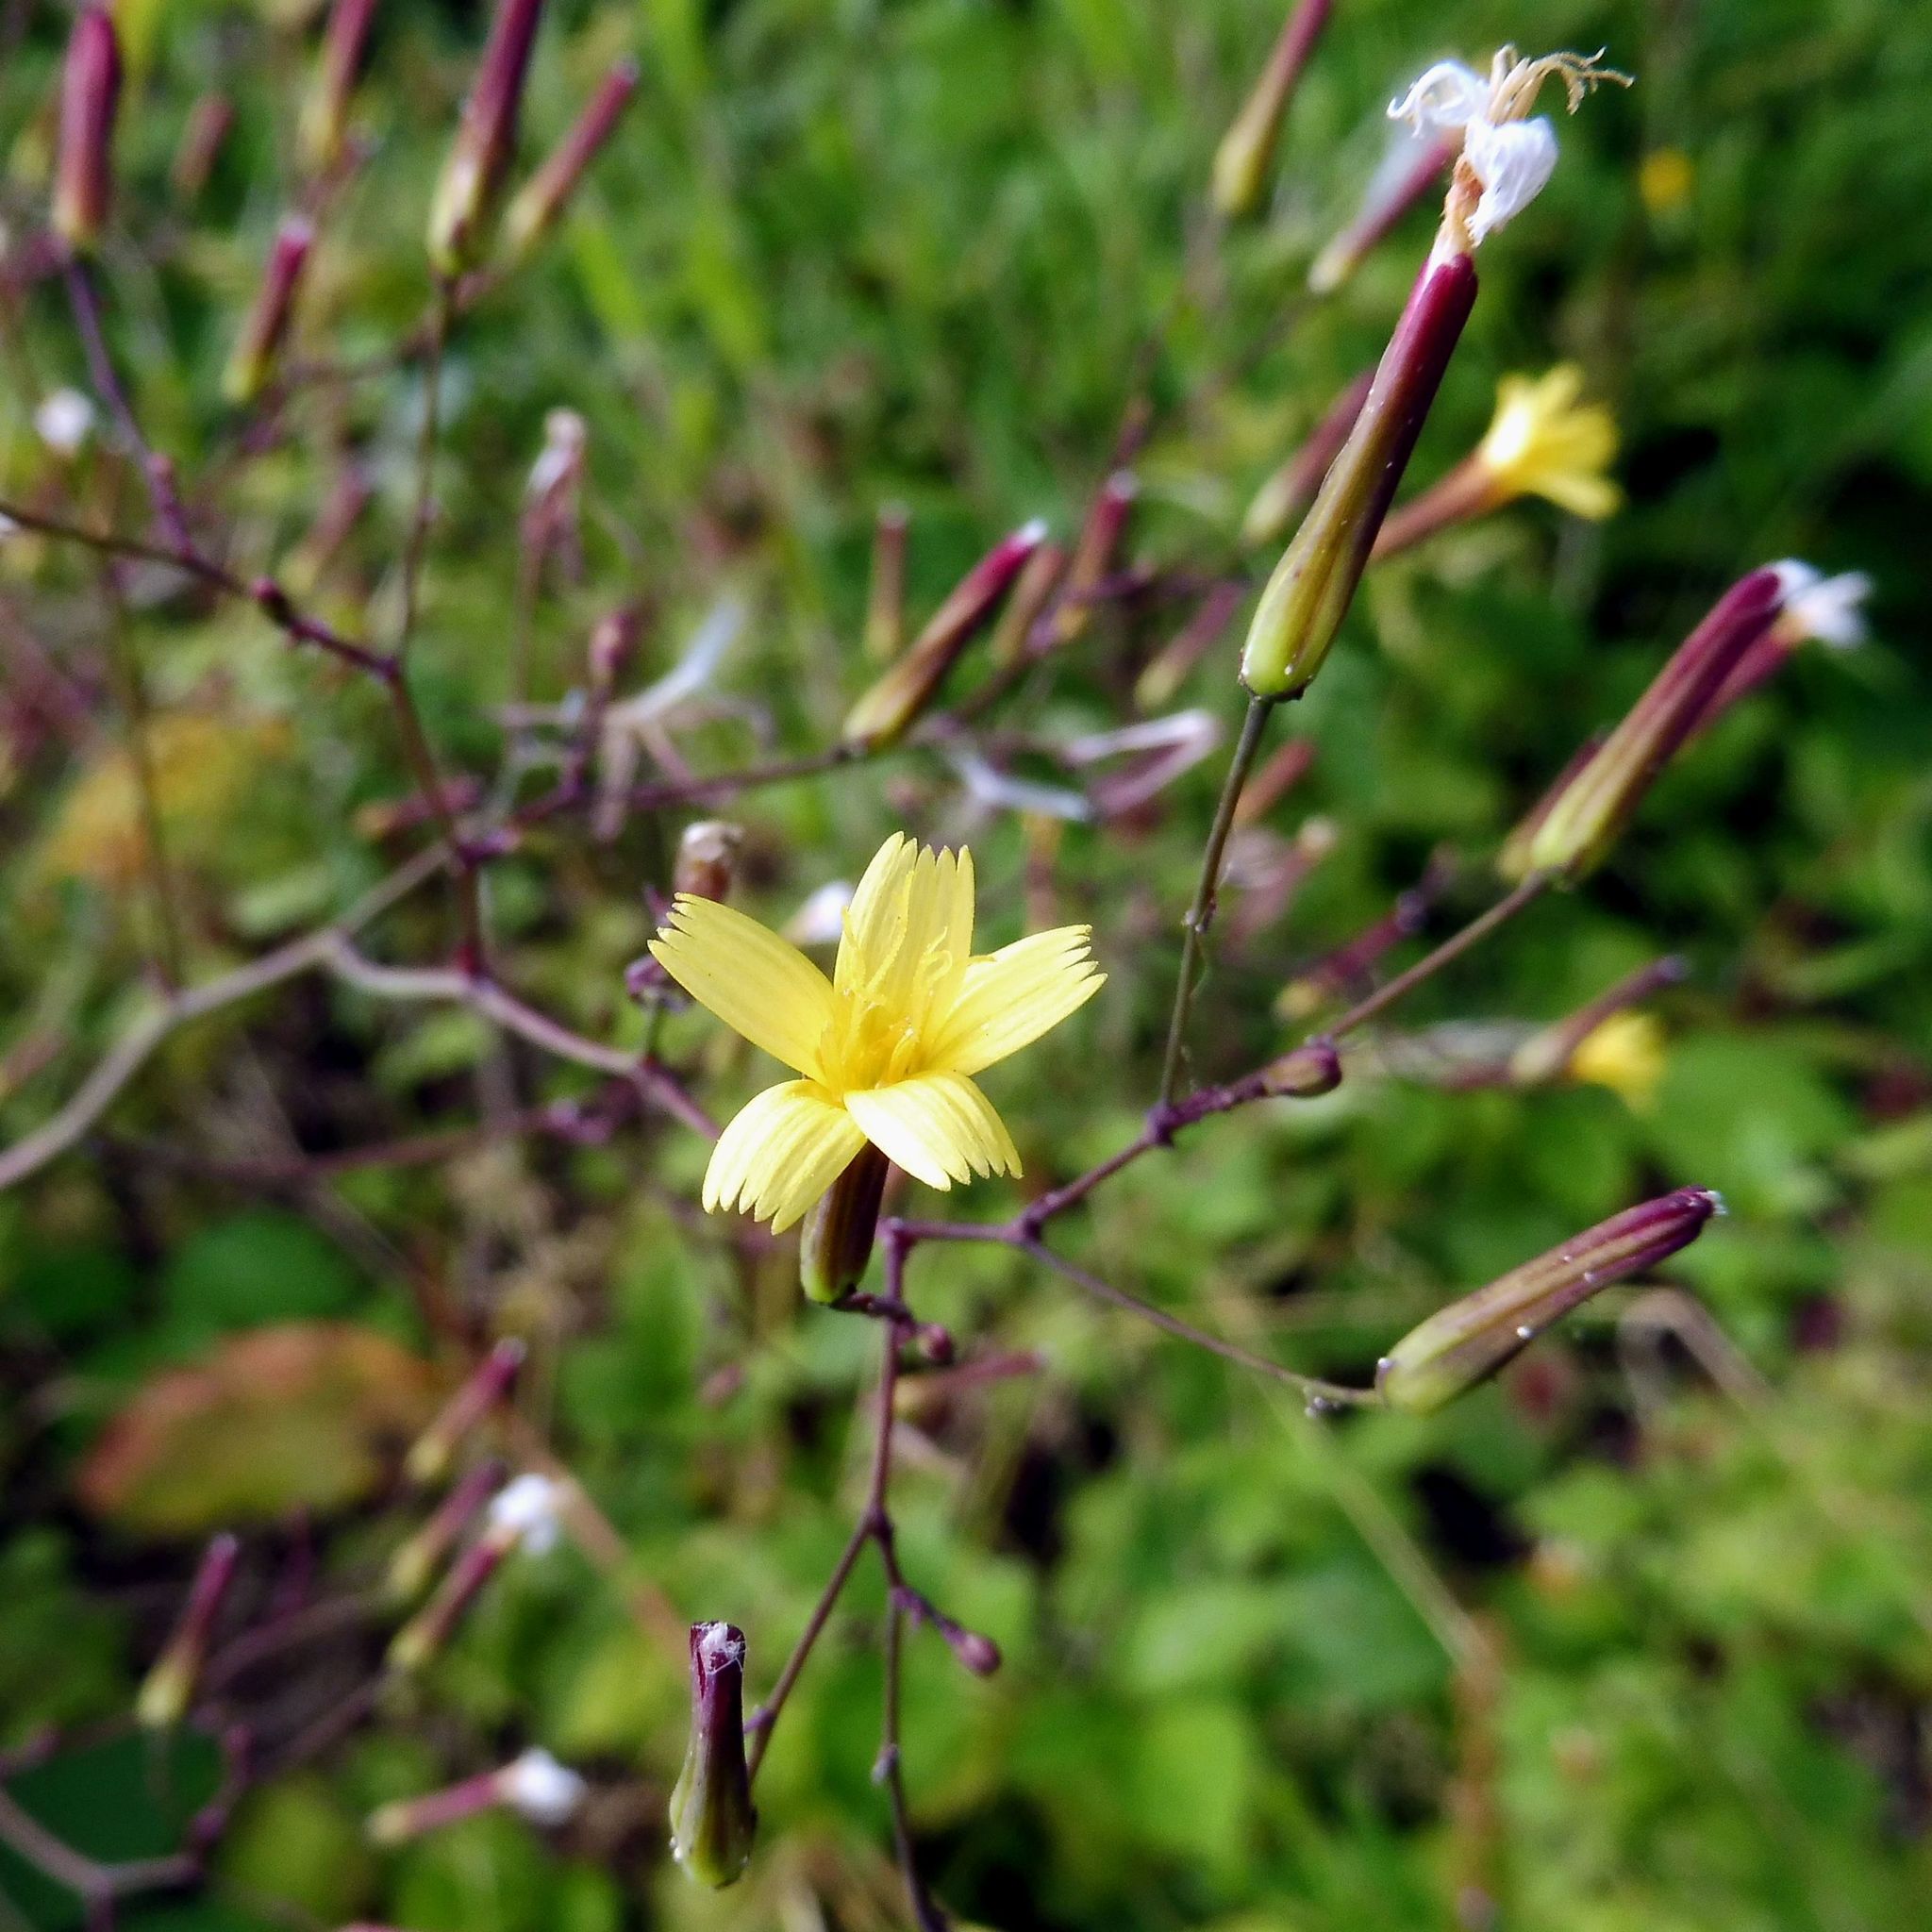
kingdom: Plantae
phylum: Tracheophyta
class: Magnoliopsida
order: Asterales
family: Asteraceae
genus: Mycelis
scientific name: Mycelis muralis
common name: Wall lettuce
